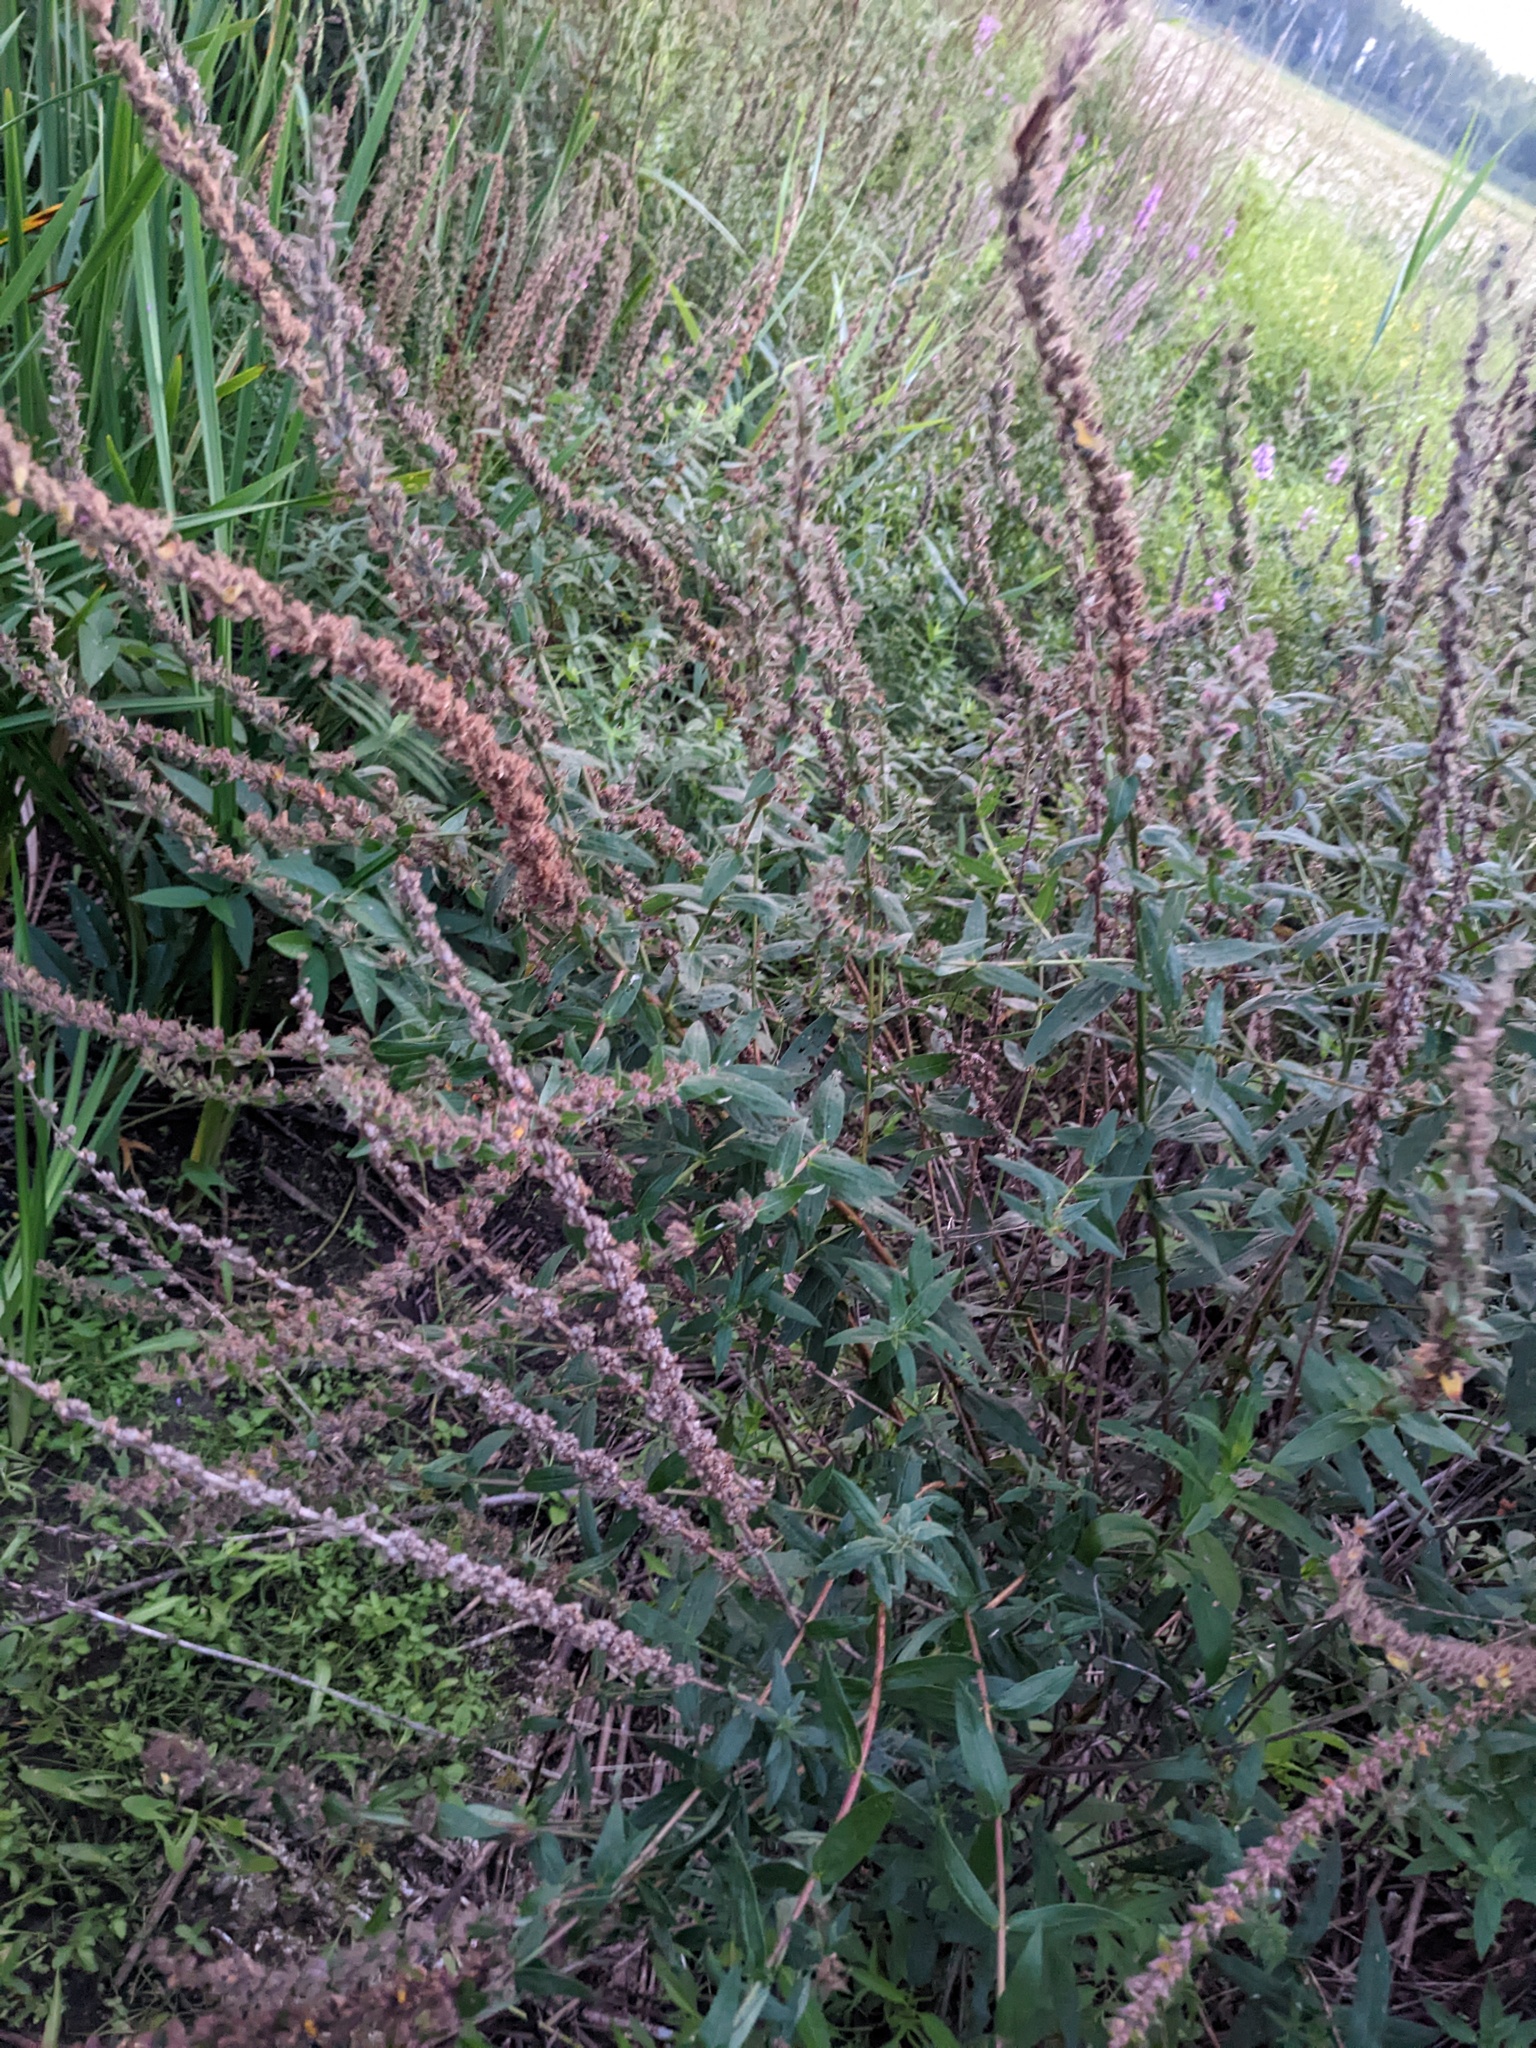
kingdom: Plantae
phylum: Tracheophyta
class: Magnoliopsida
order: Myrtales
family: Lythraceae
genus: Lythrum
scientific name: Lythrum salicaria
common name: Purple loosestrife
